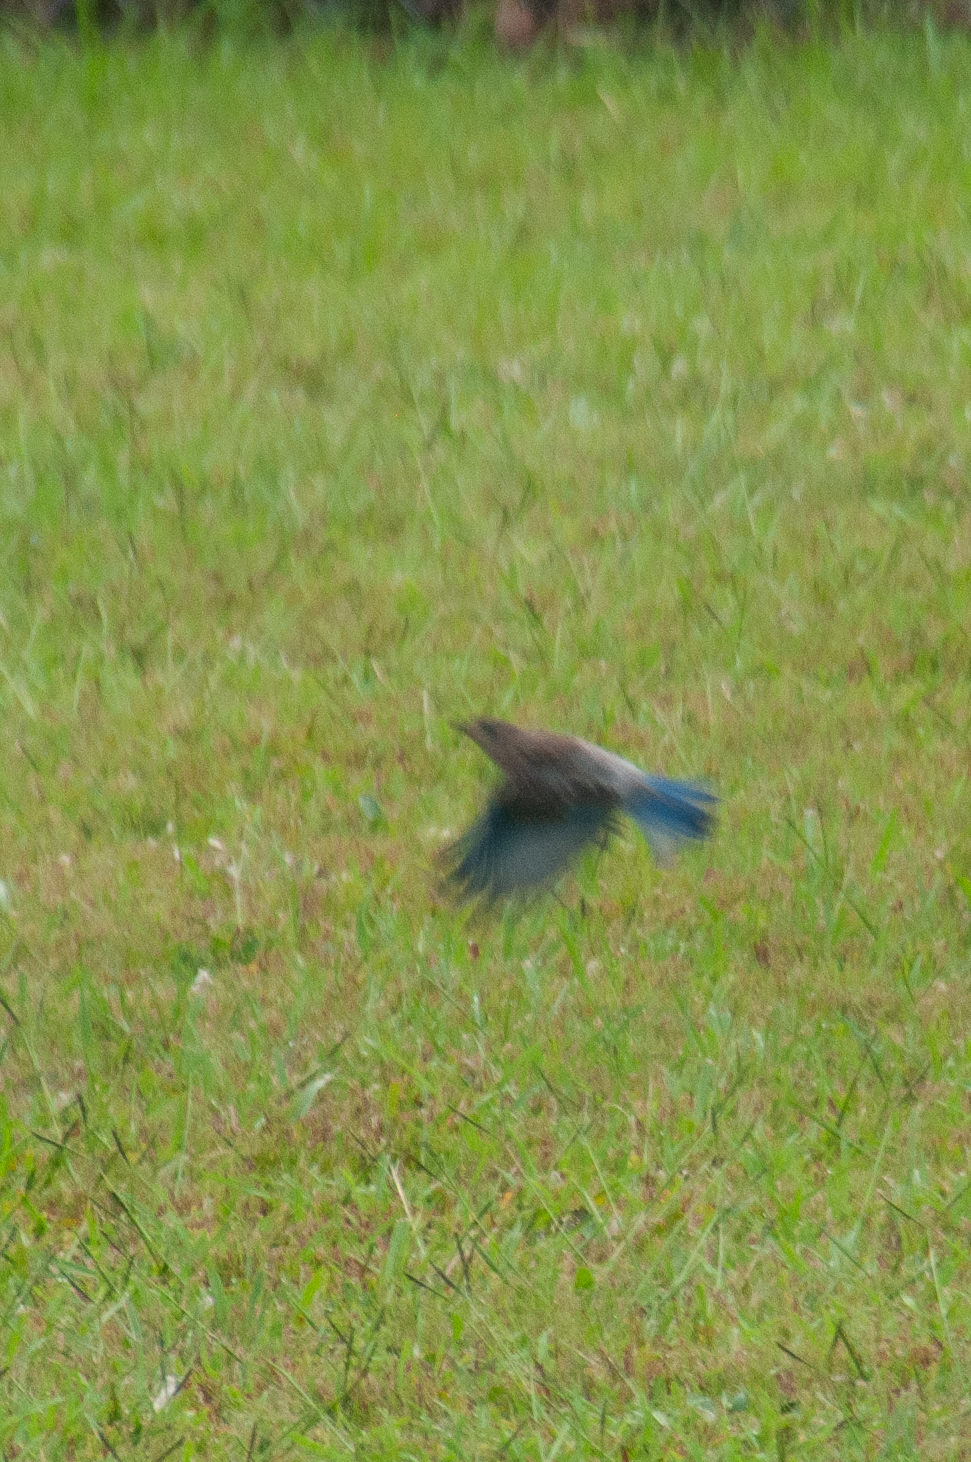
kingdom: Animalia
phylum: Chordata
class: Aves
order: Passeriformes
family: Turdidae
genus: Sialia
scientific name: Sialia sialis
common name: Eastern bluebird
